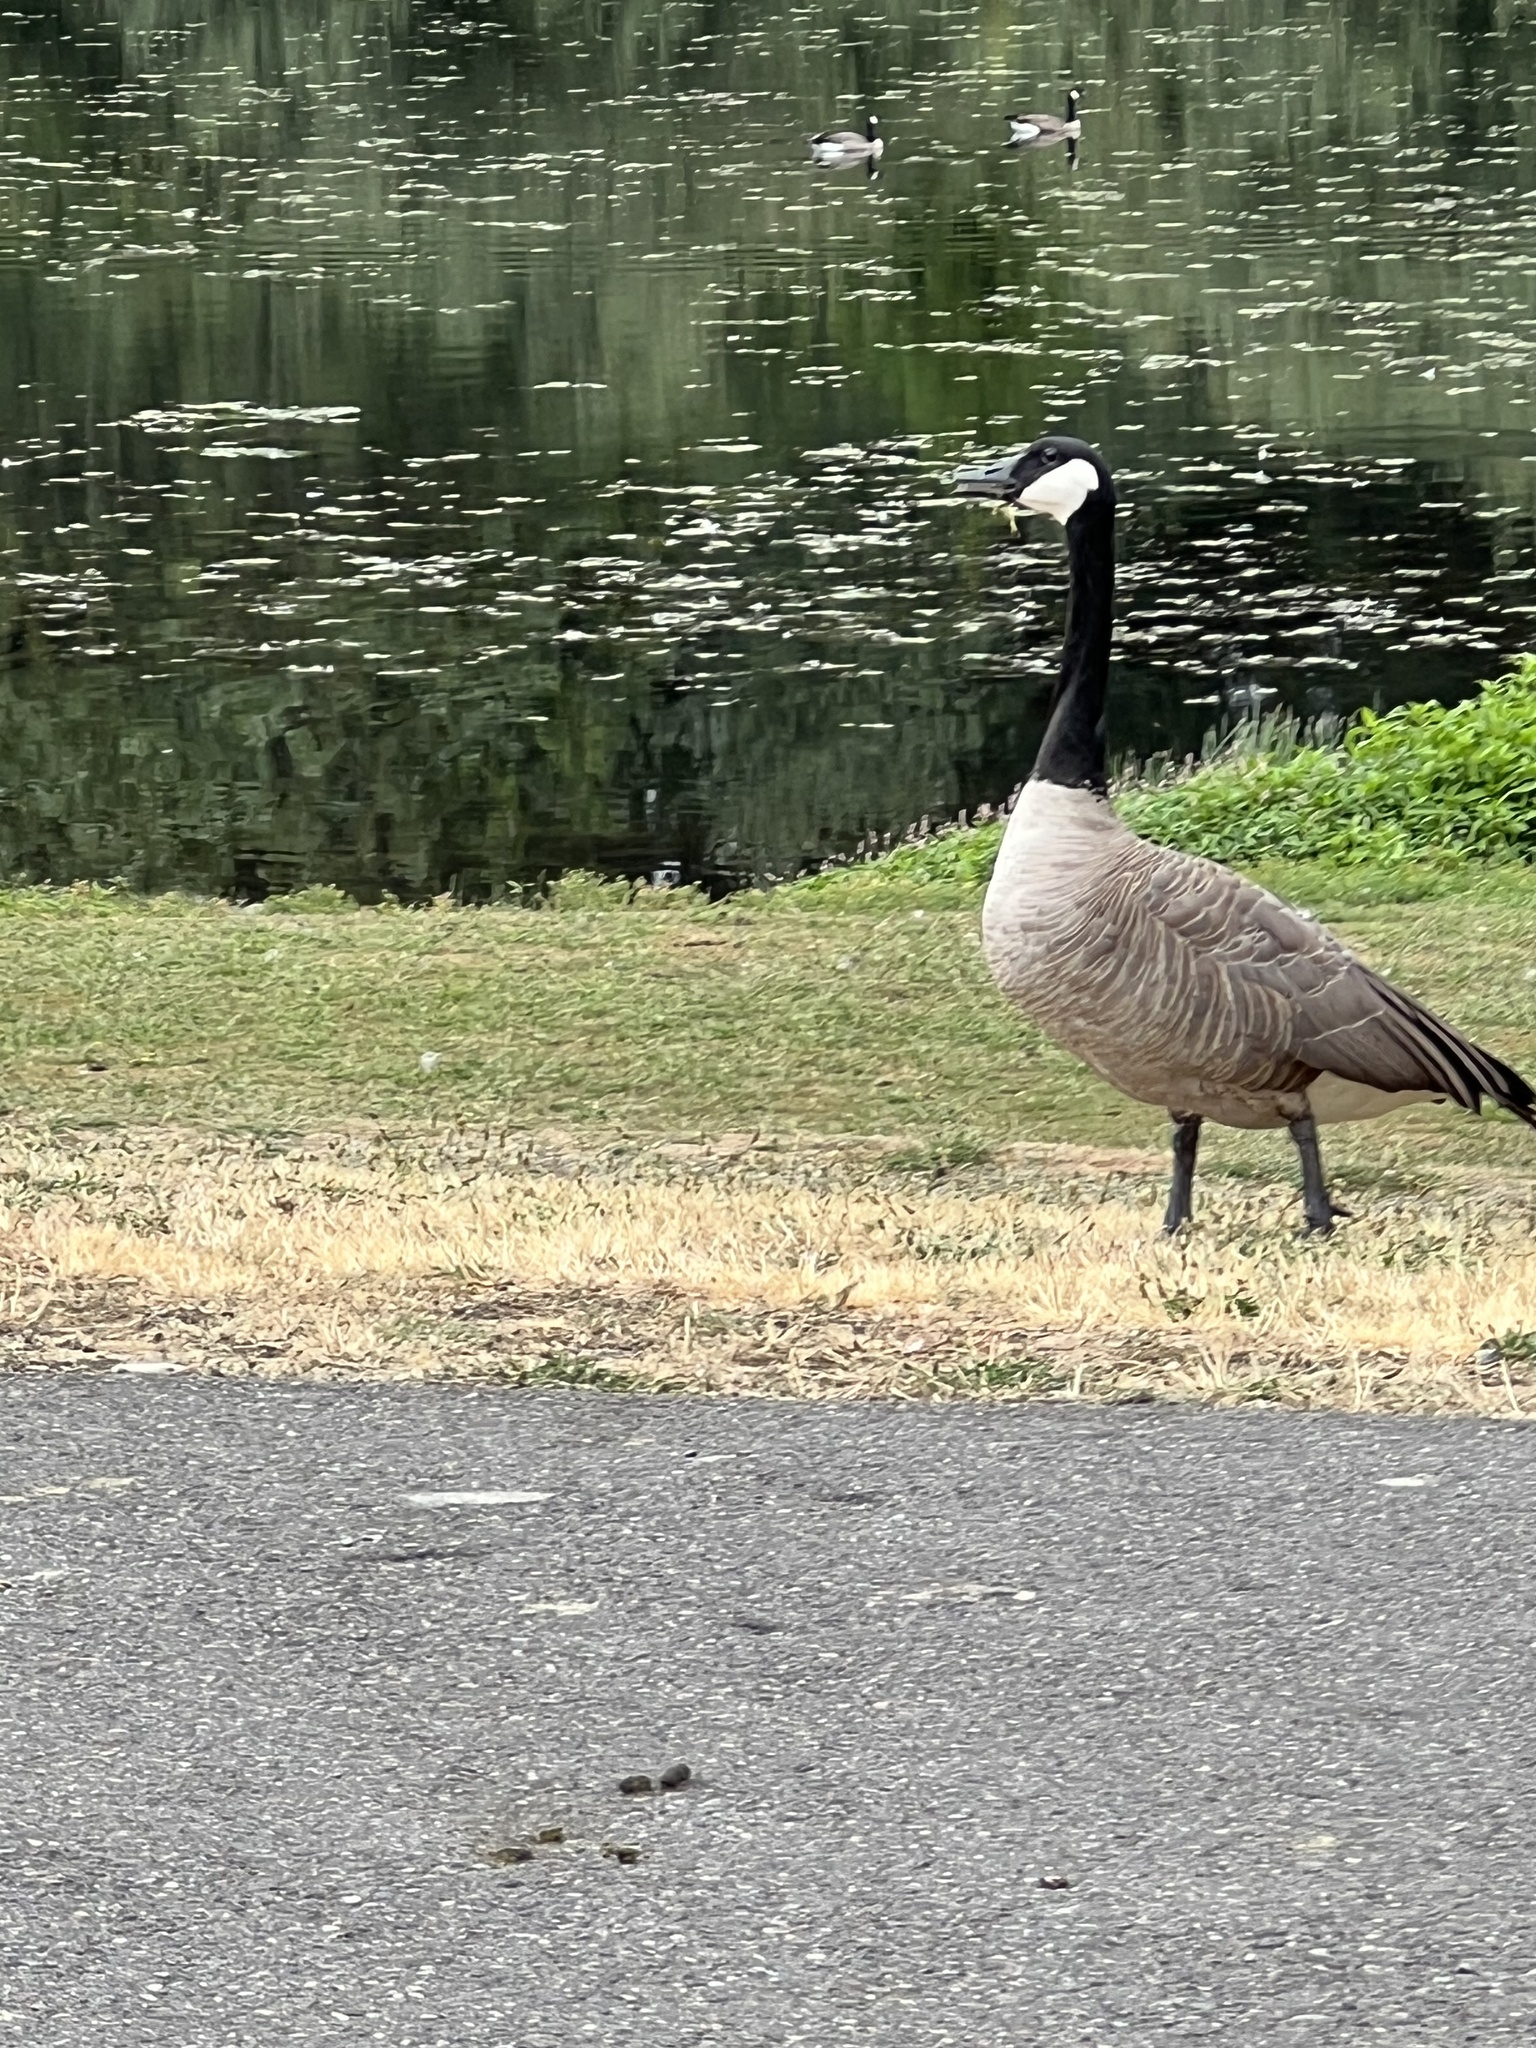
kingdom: Animalia
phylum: Chordata
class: Aves
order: Anseriformes
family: Anatidae
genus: Branta
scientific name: Branta canadensis
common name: Canada goose
